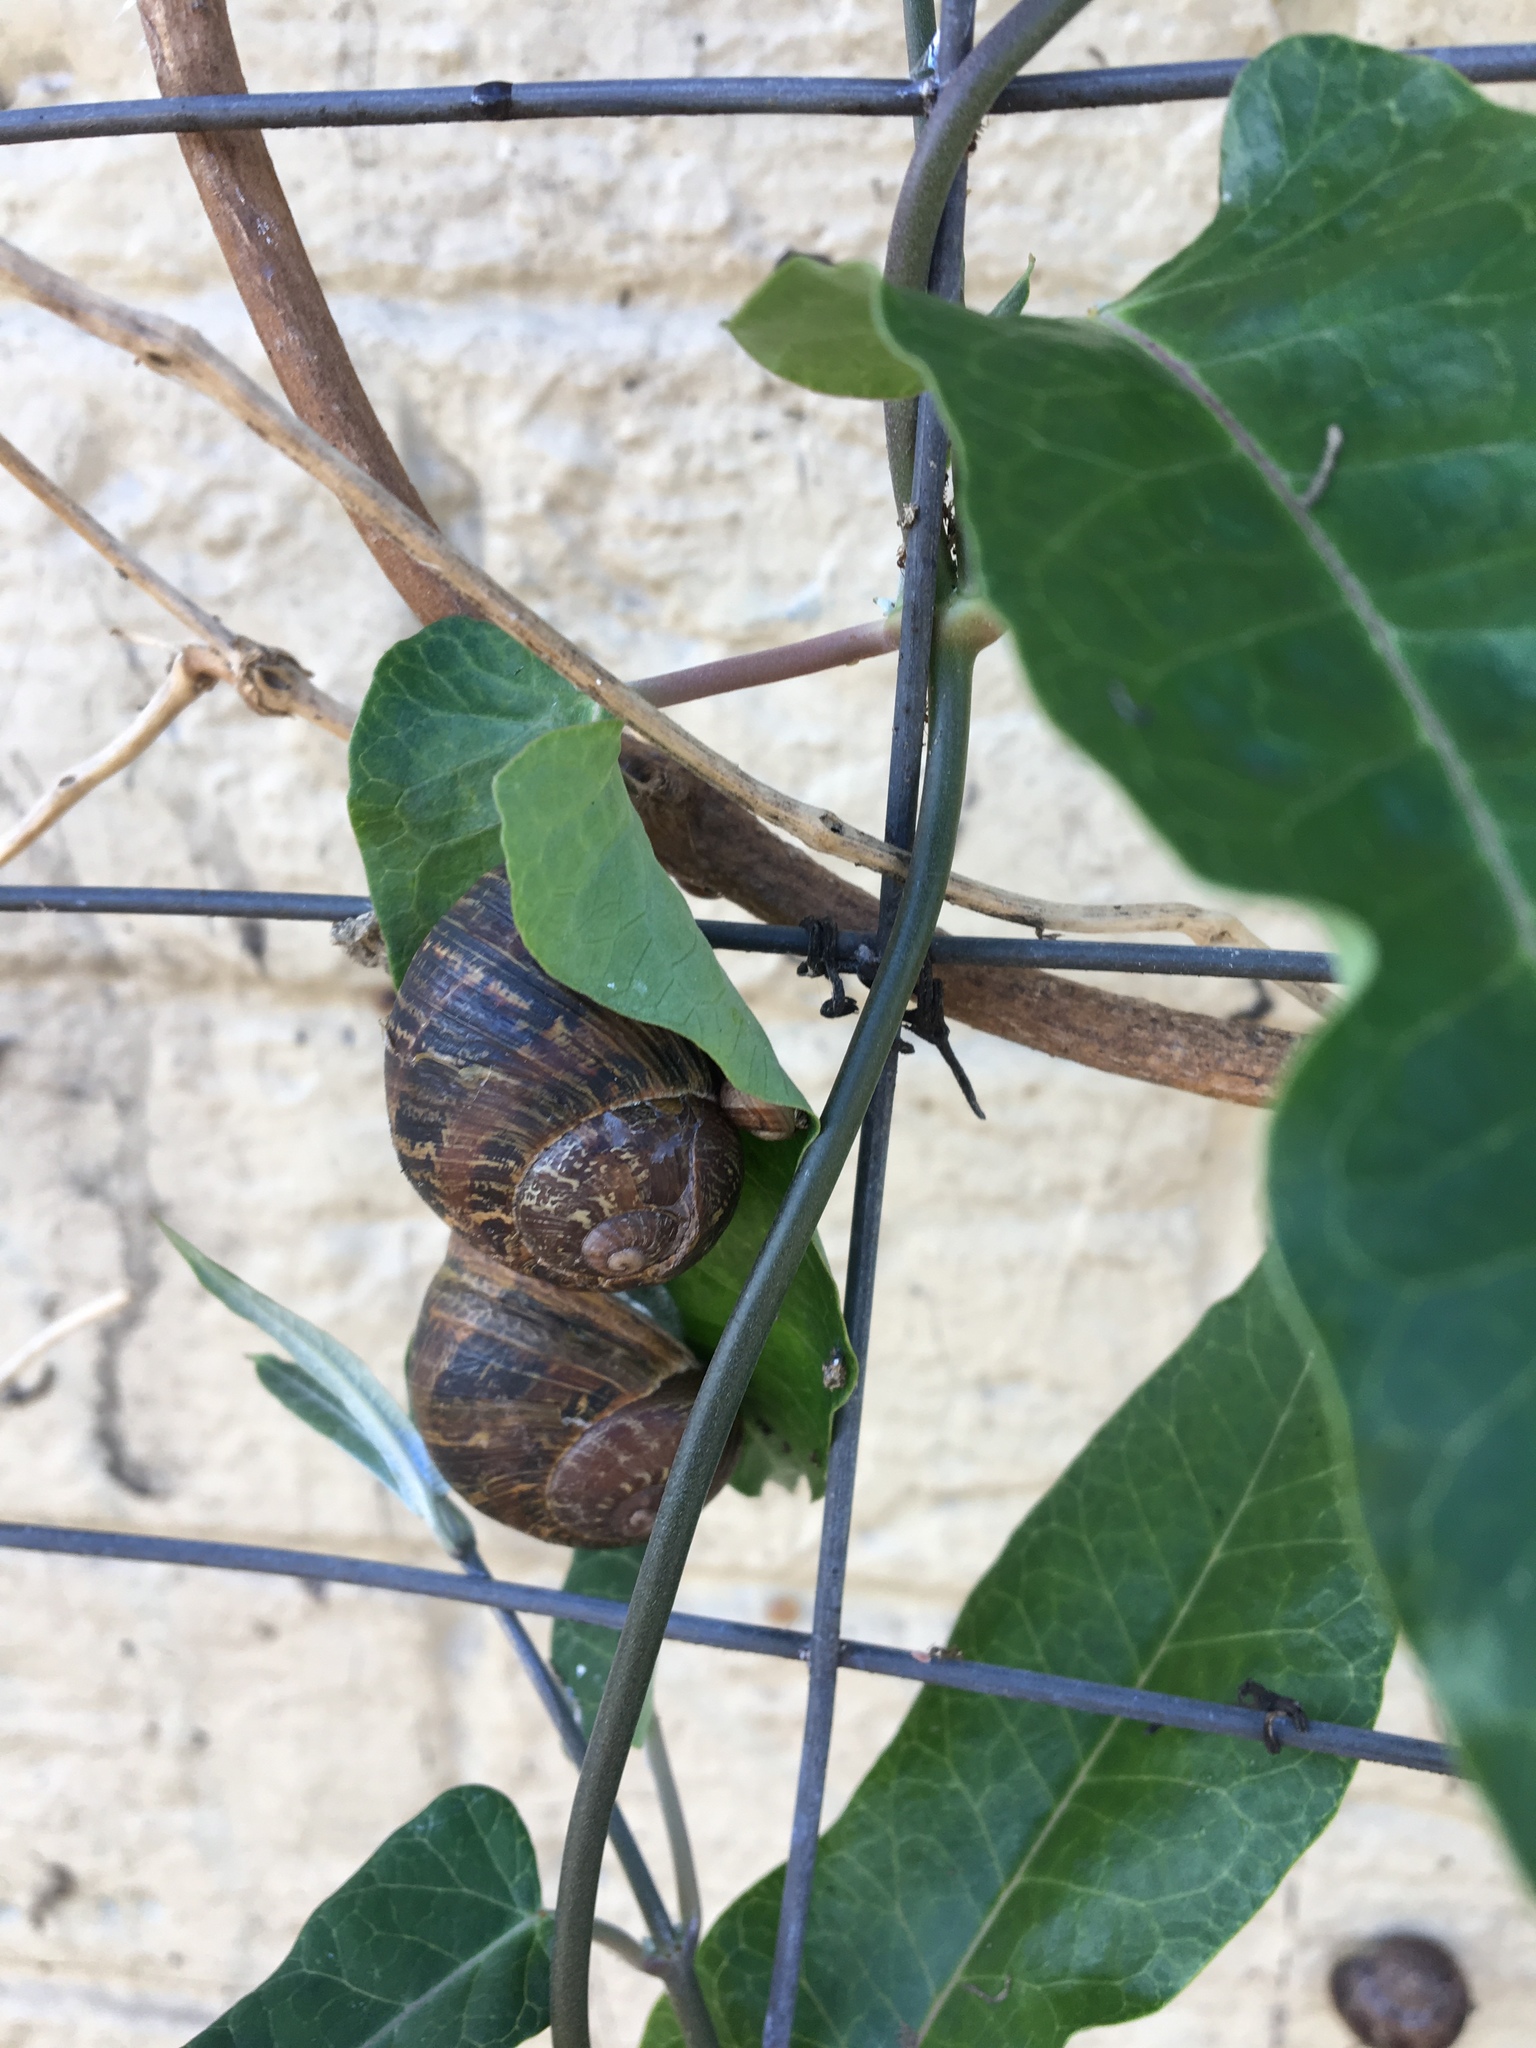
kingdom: Animalia
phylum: Mollusca
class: Gastropoda
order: Stylommatophora
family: Helicidae
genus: Cornu
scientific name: Cornu aspersum
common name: Brown garden snail
